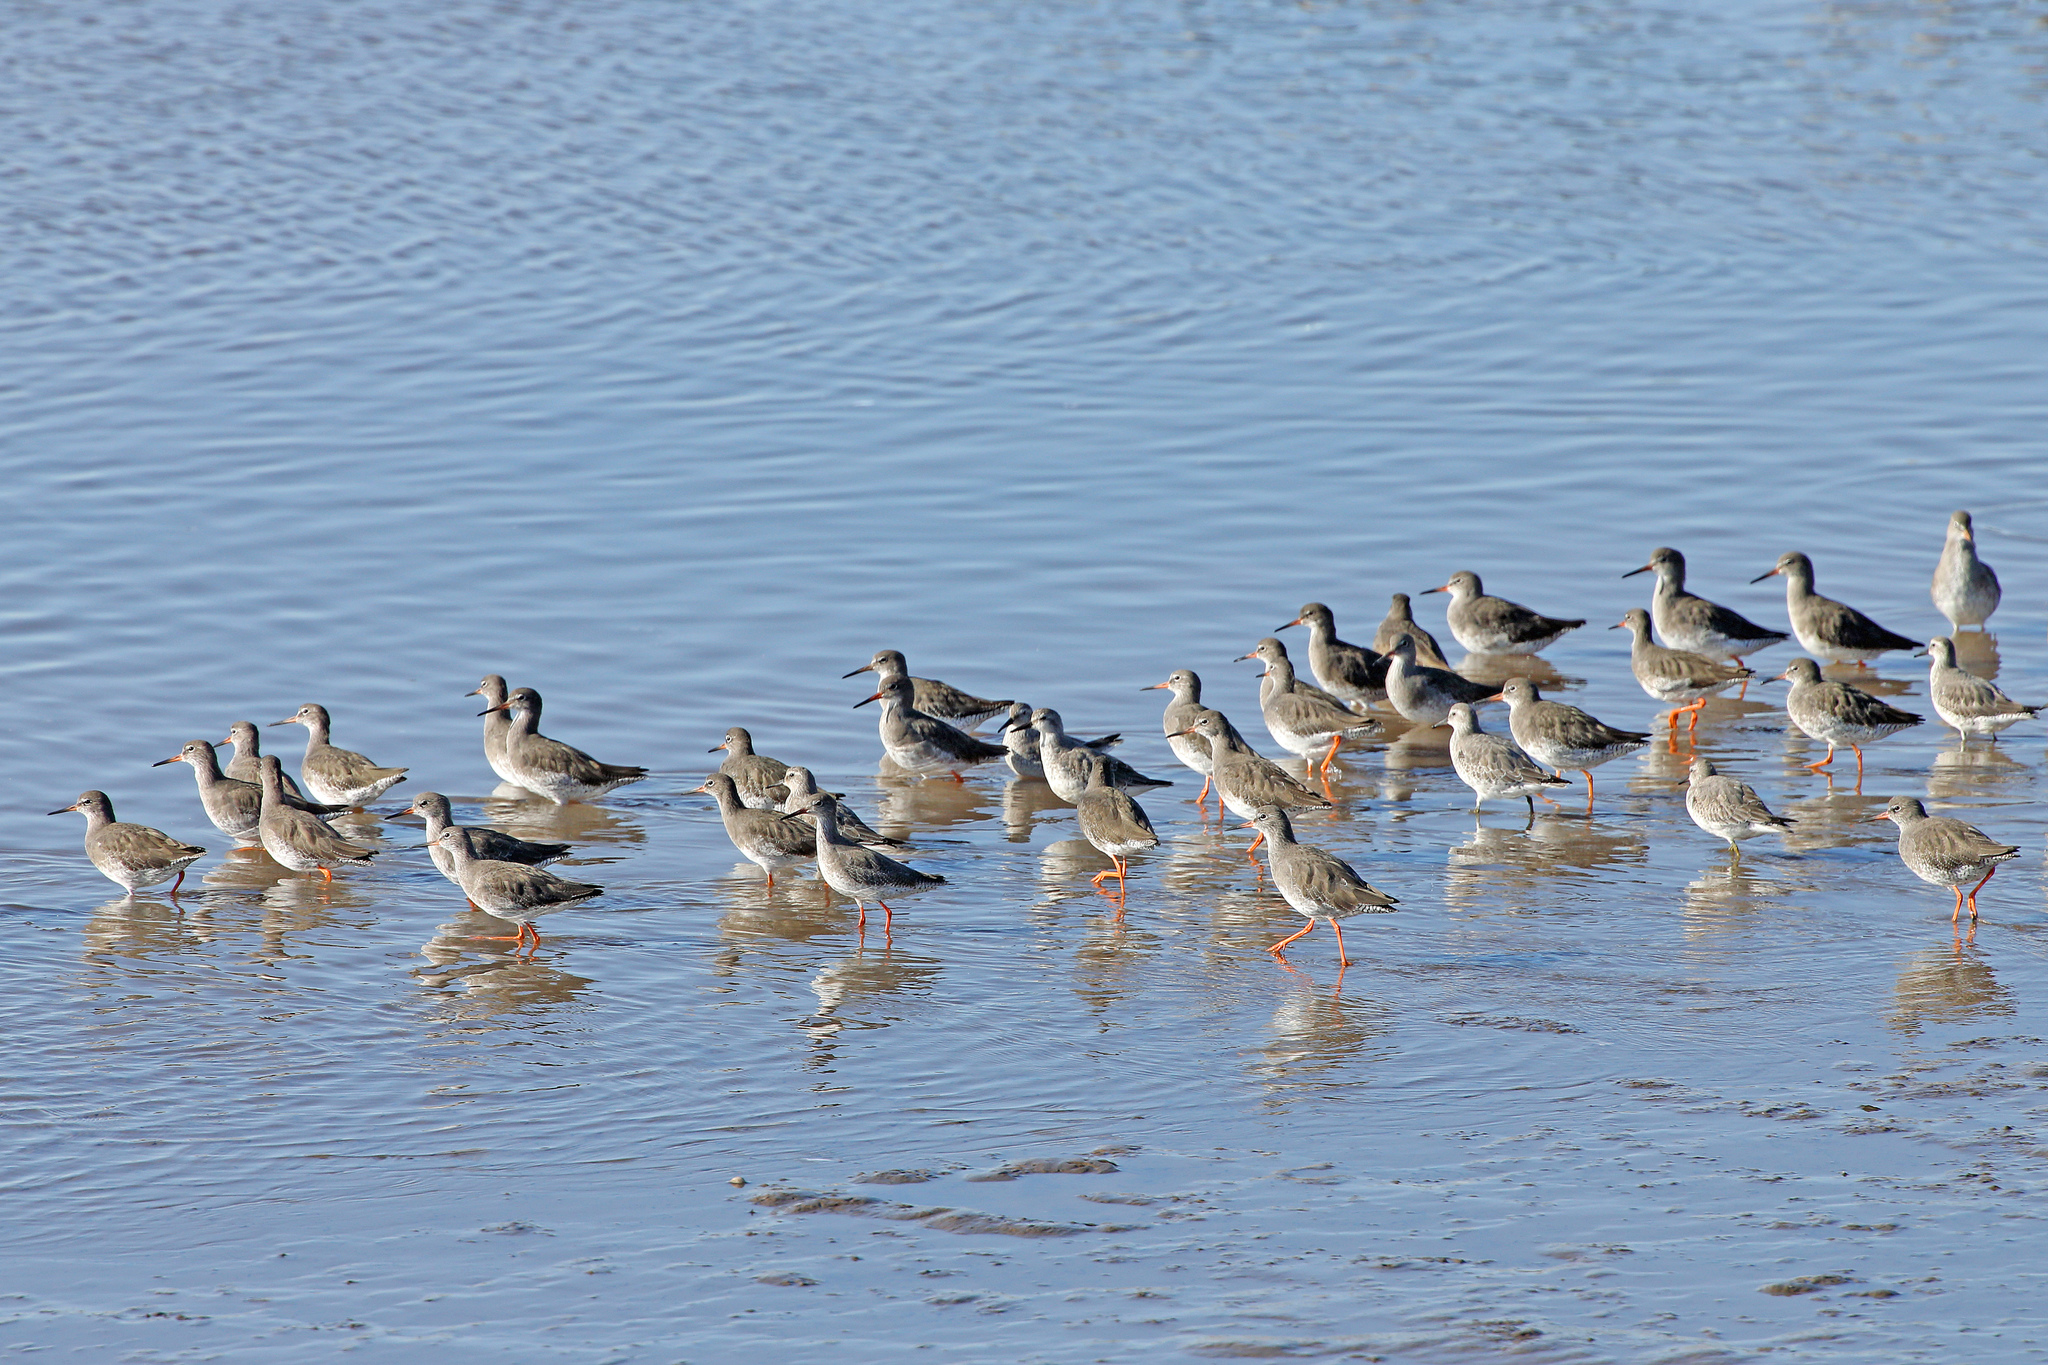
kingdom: Animalia
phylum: Chordata
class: Aves
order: Charadriiformes
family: Scolopacidae
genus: Tringa
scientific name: Tringa totanus
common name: Common redshank
